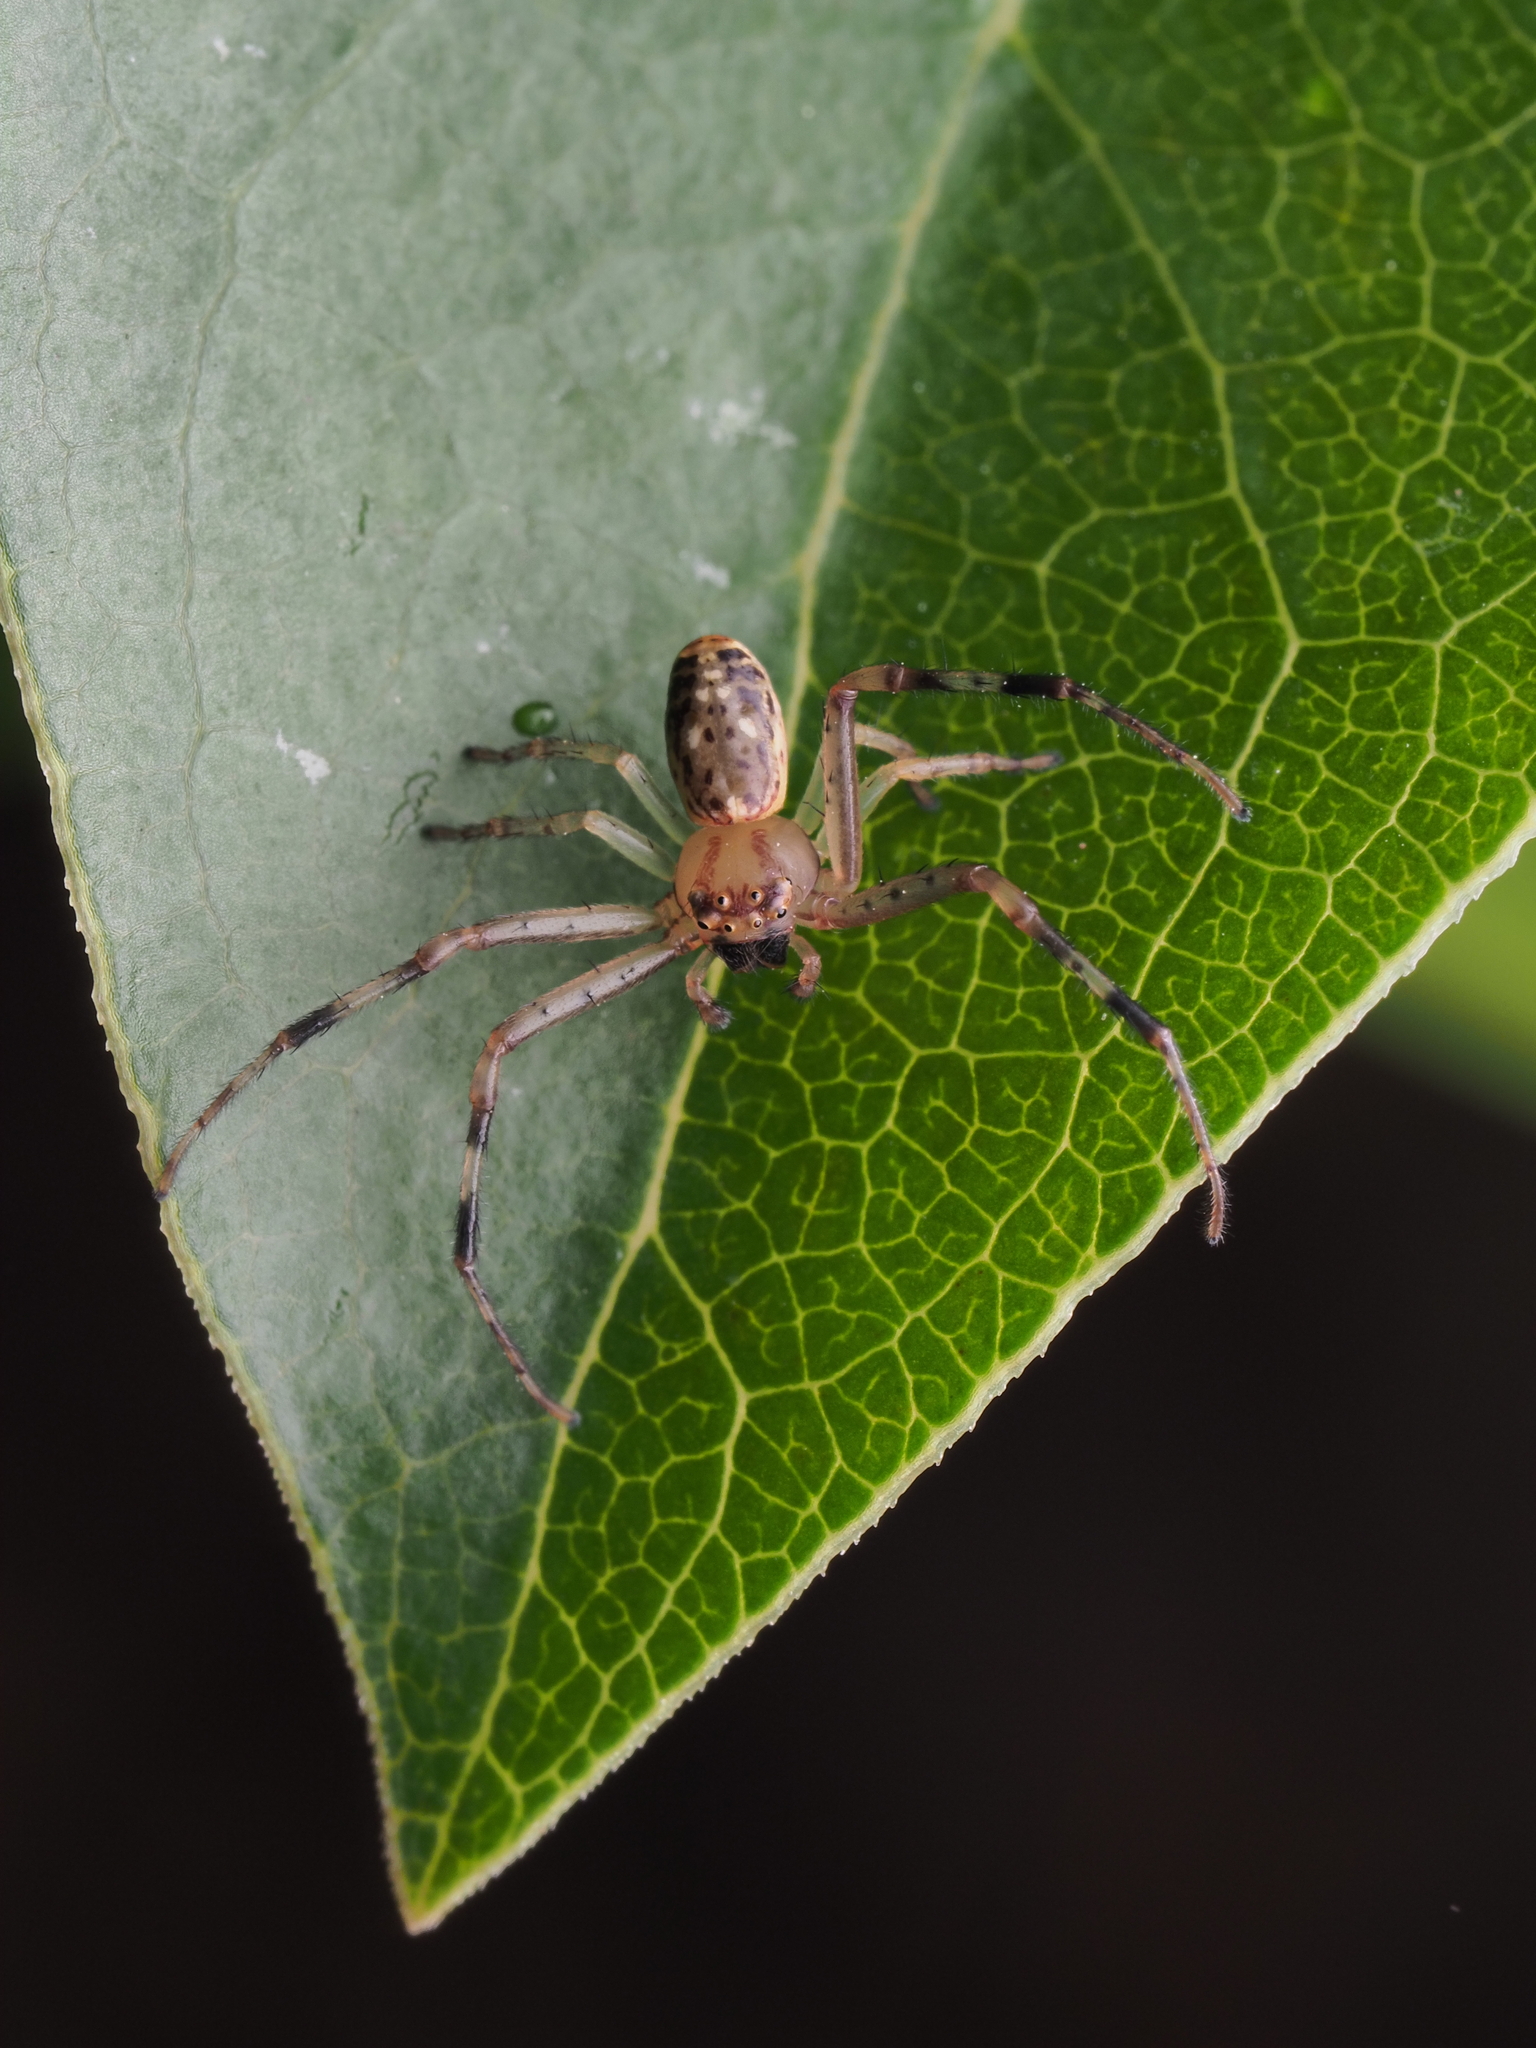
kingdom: Animalia
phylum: Arthropoda
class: Arachnida
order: Araneae
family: Thomisidae
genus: Diaea
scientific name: Diaea ambara
